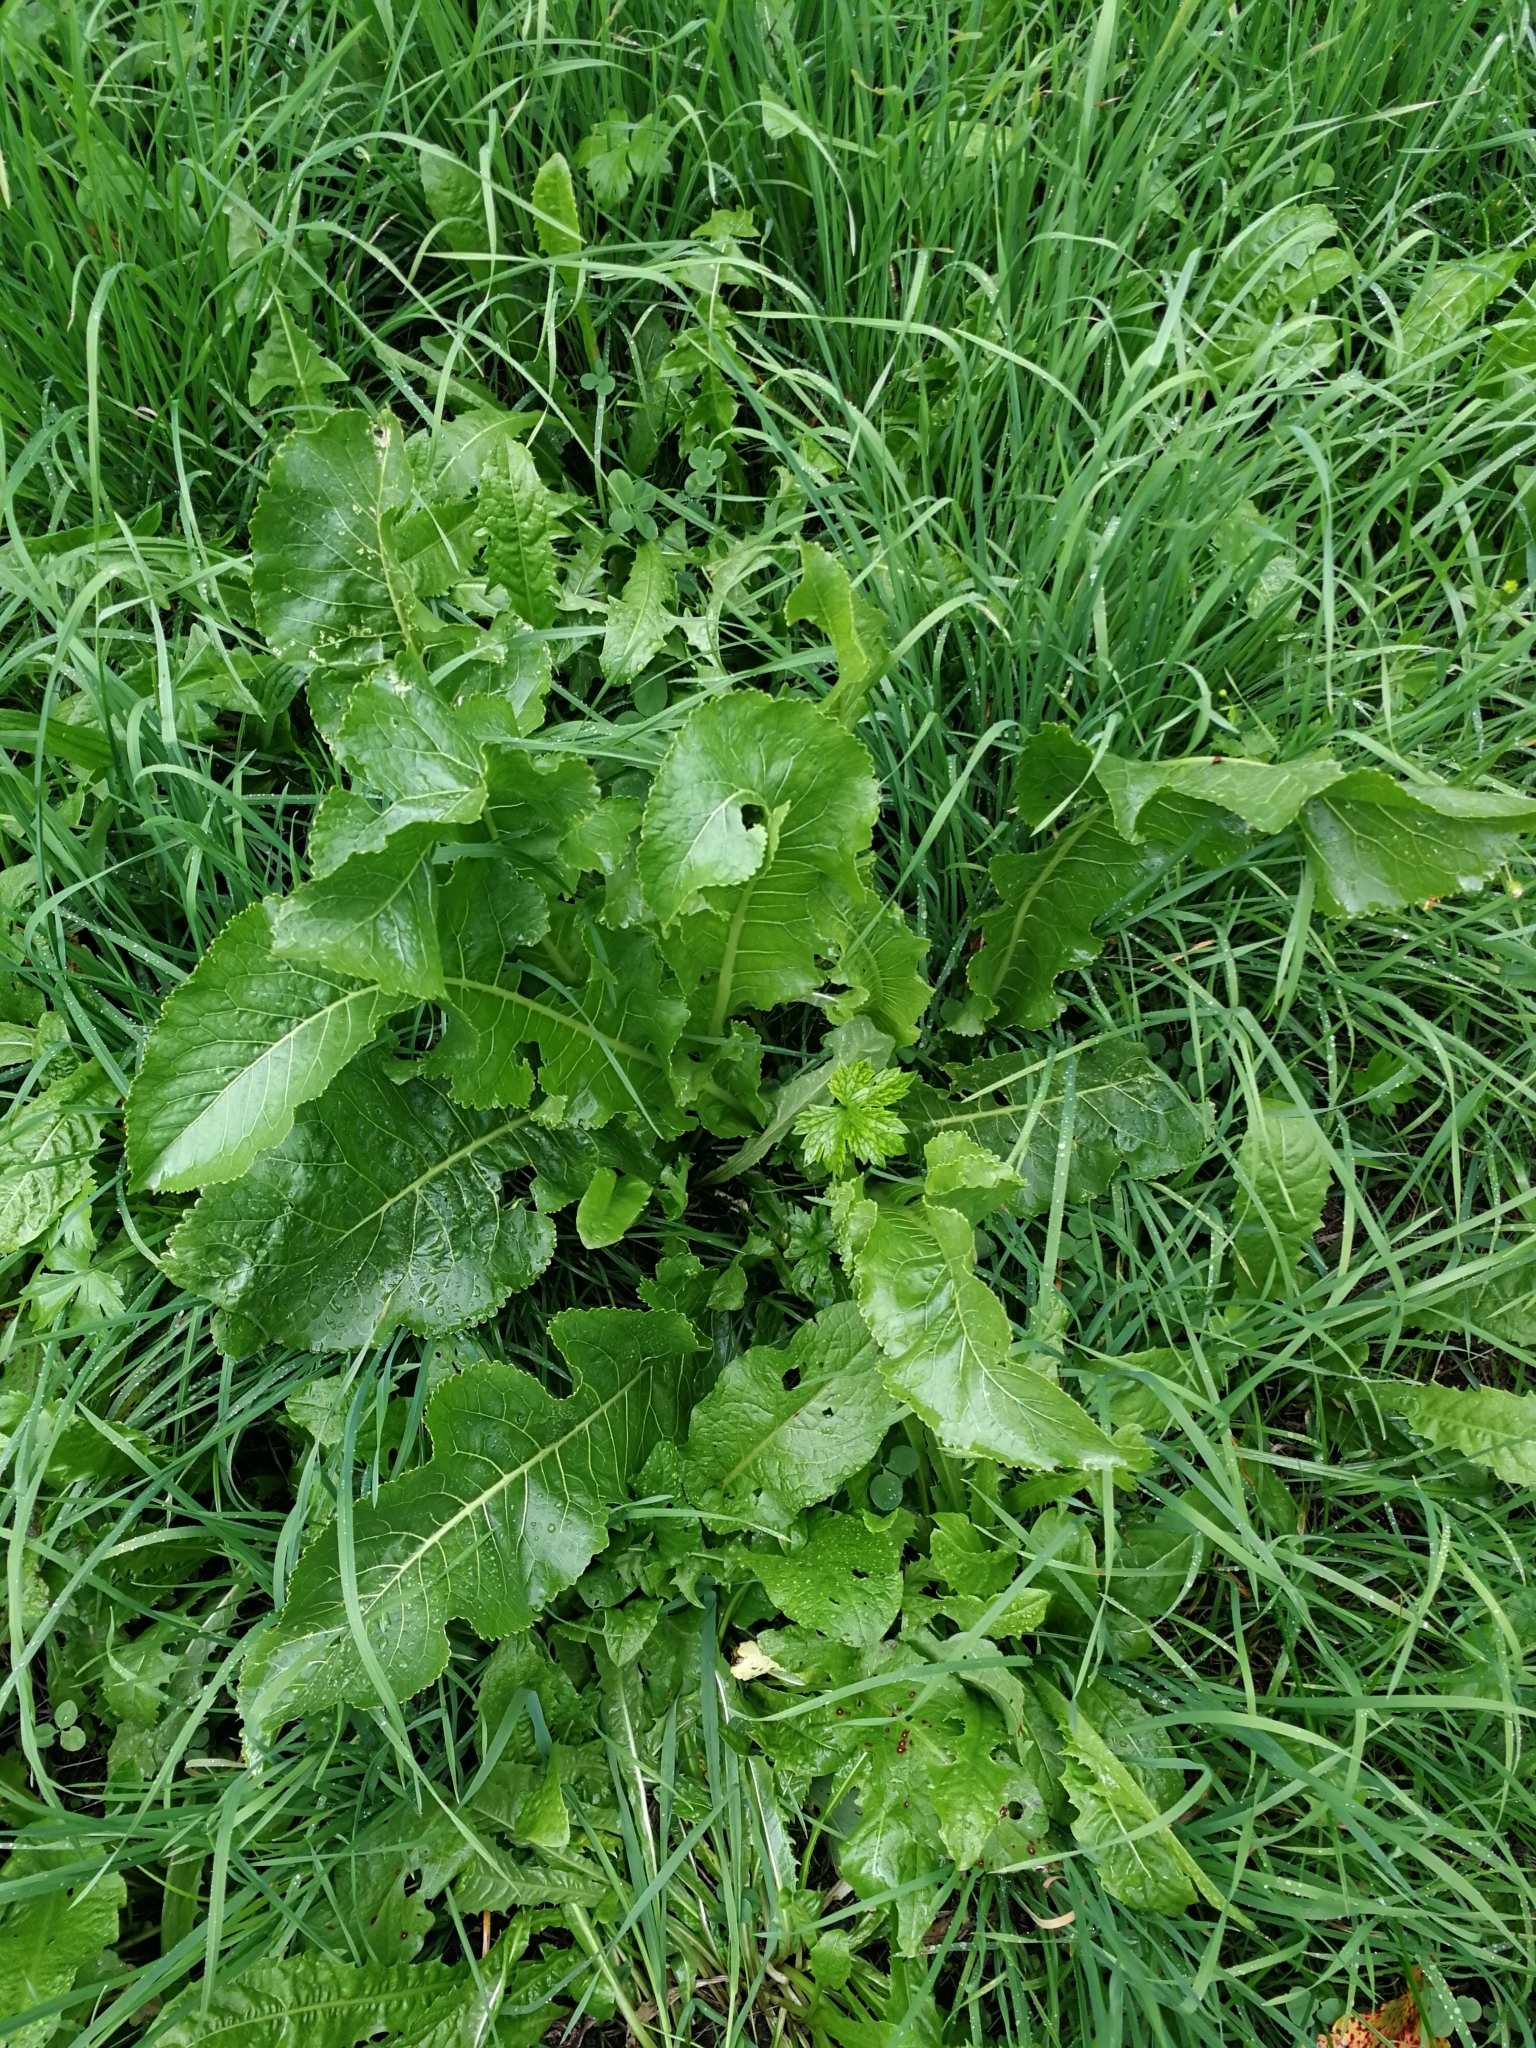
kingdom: Plantae
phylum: Tracheophyta
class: Magnoliopsida
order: Brassicales
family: Brassicaceae
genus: Armoracia
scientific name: Armoracia rusticana
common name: Horseradish
